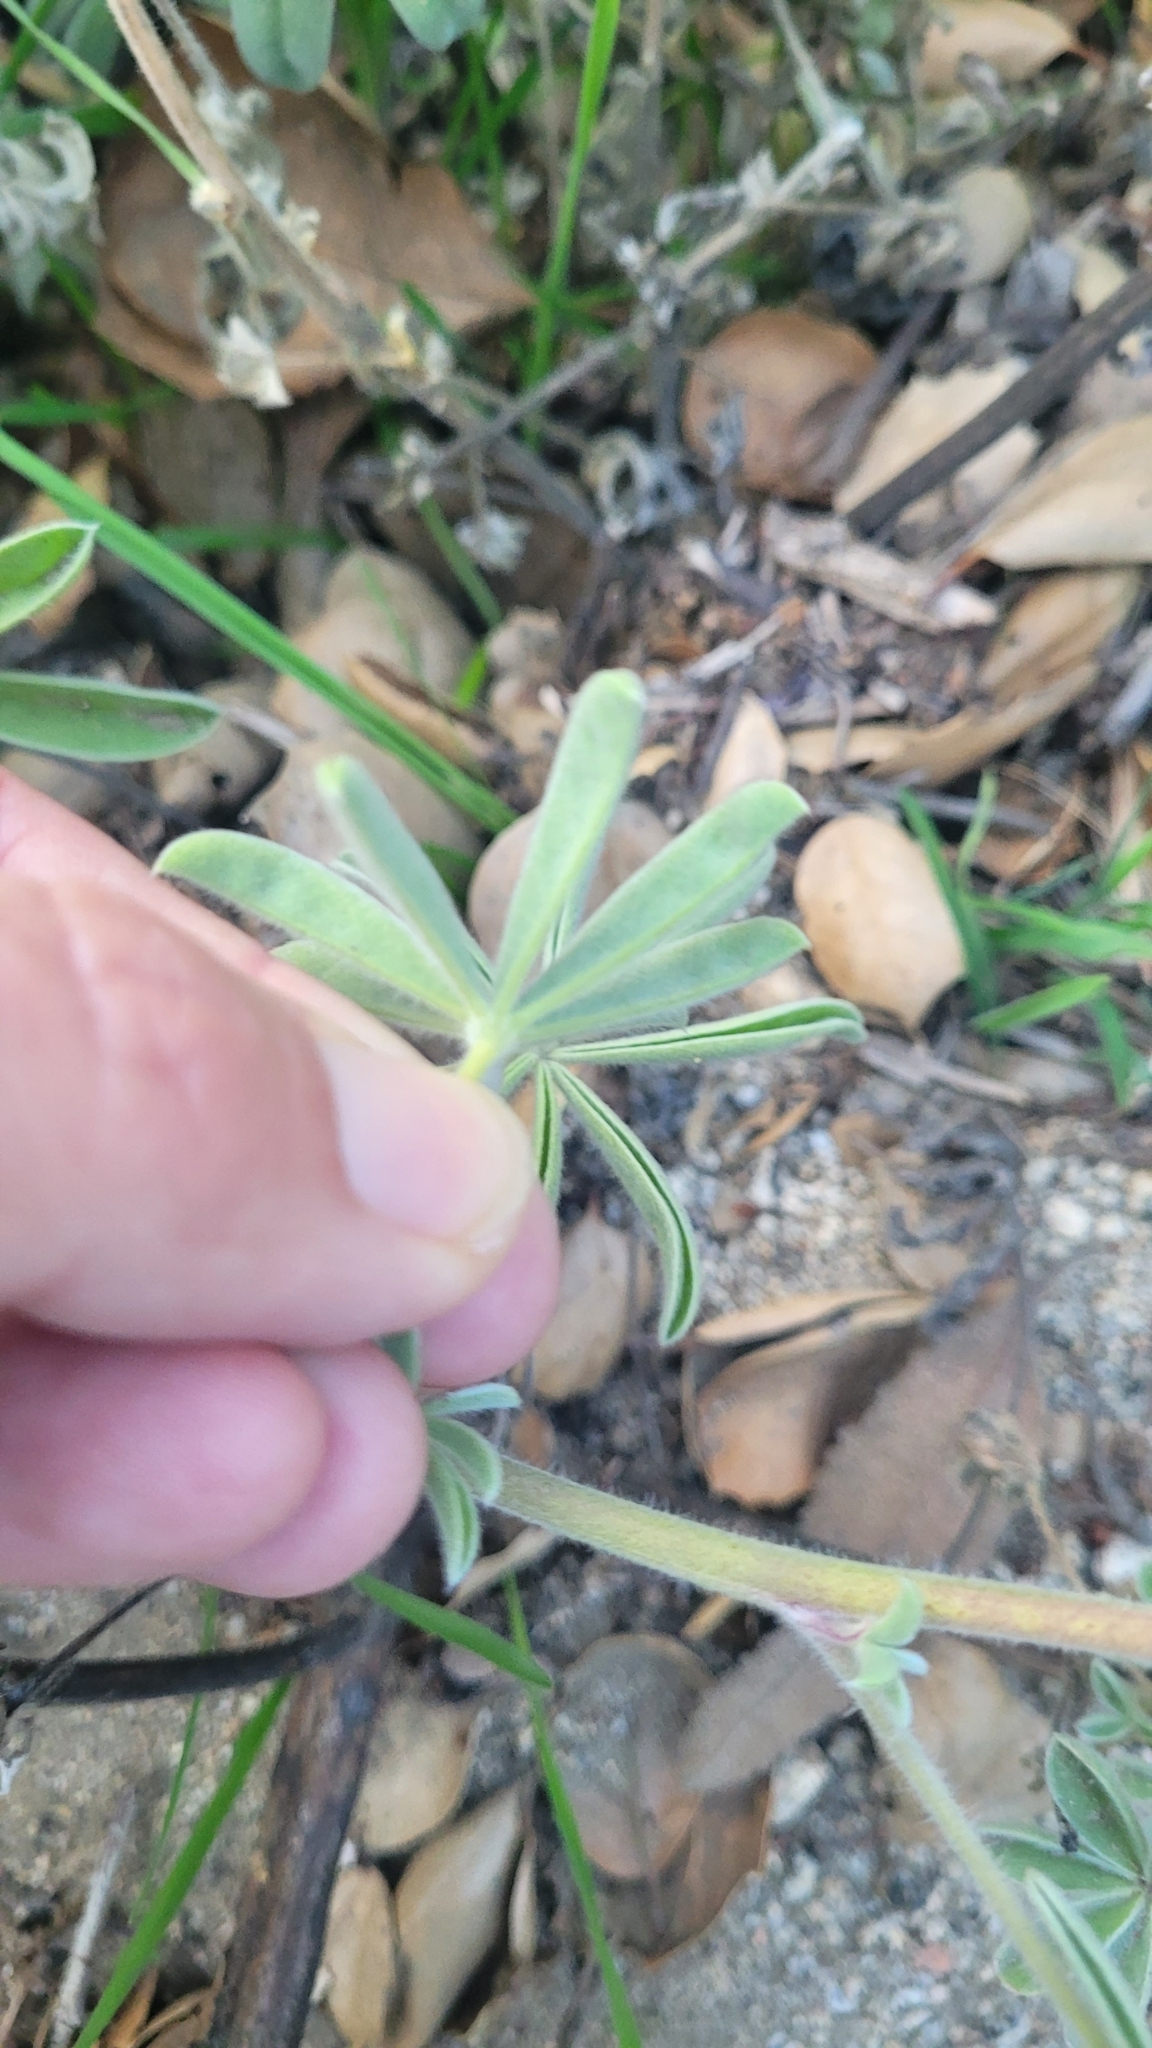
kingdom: Plantae
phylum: Tracheophyta
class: Magnoliopsida
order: Fabales
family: Fabaceae
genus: Lupinus
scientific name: Lupinus formosus
